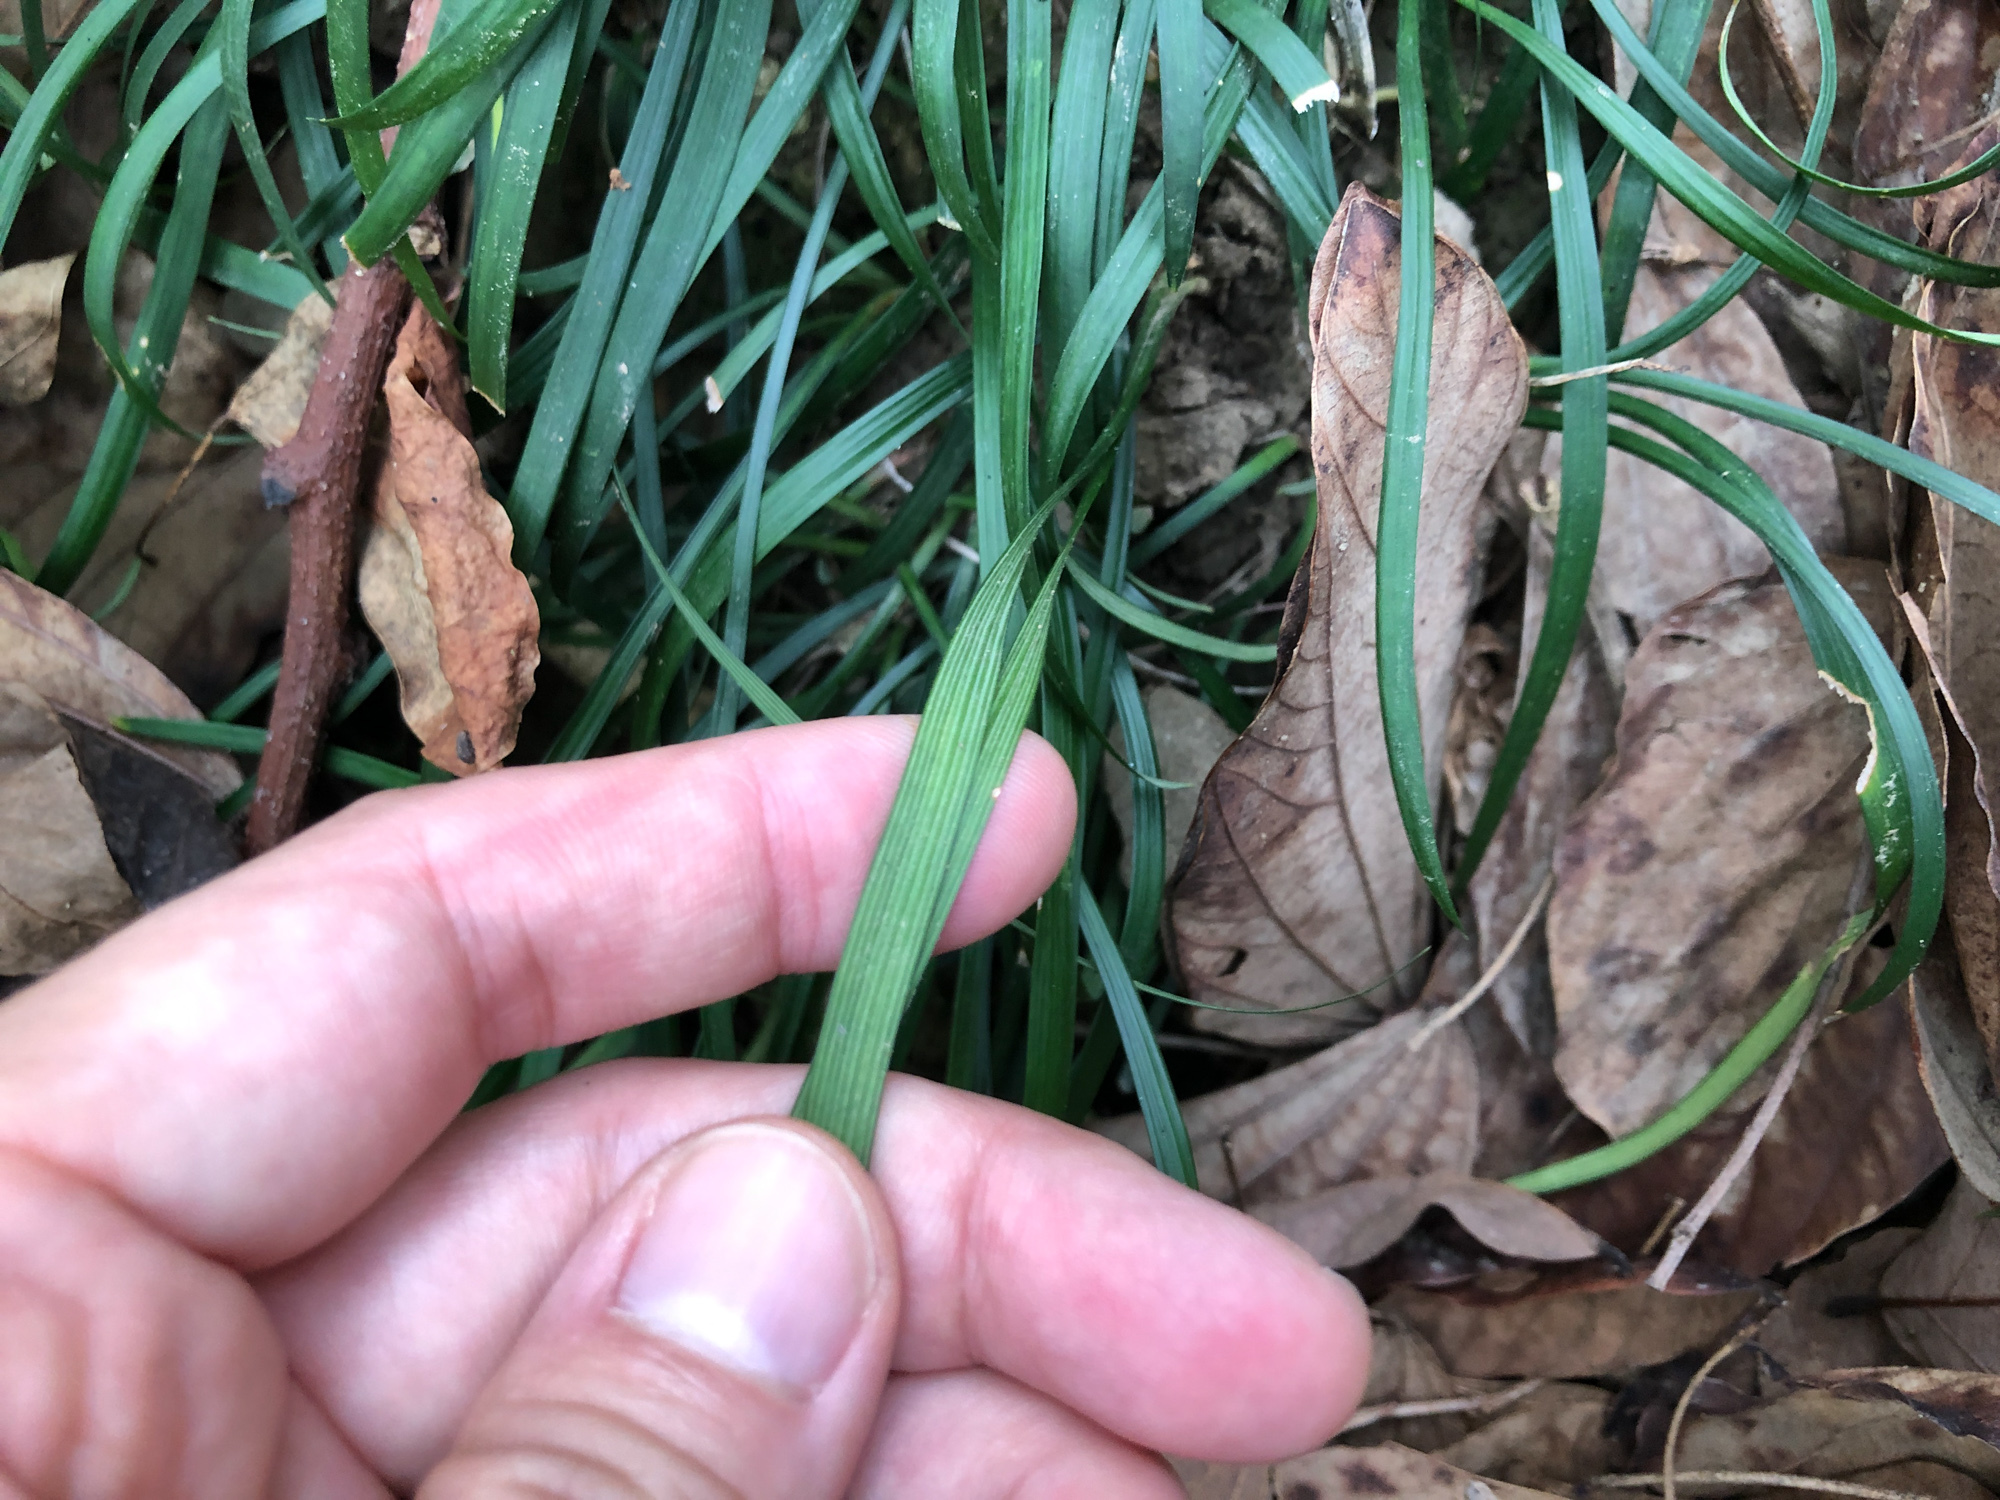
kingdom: Plantae
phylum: Tracheophyta
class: Liliopsida
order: Asparagales
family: Asparagaceae
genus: Ophiopogon
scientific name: Ophiopogon reversus
